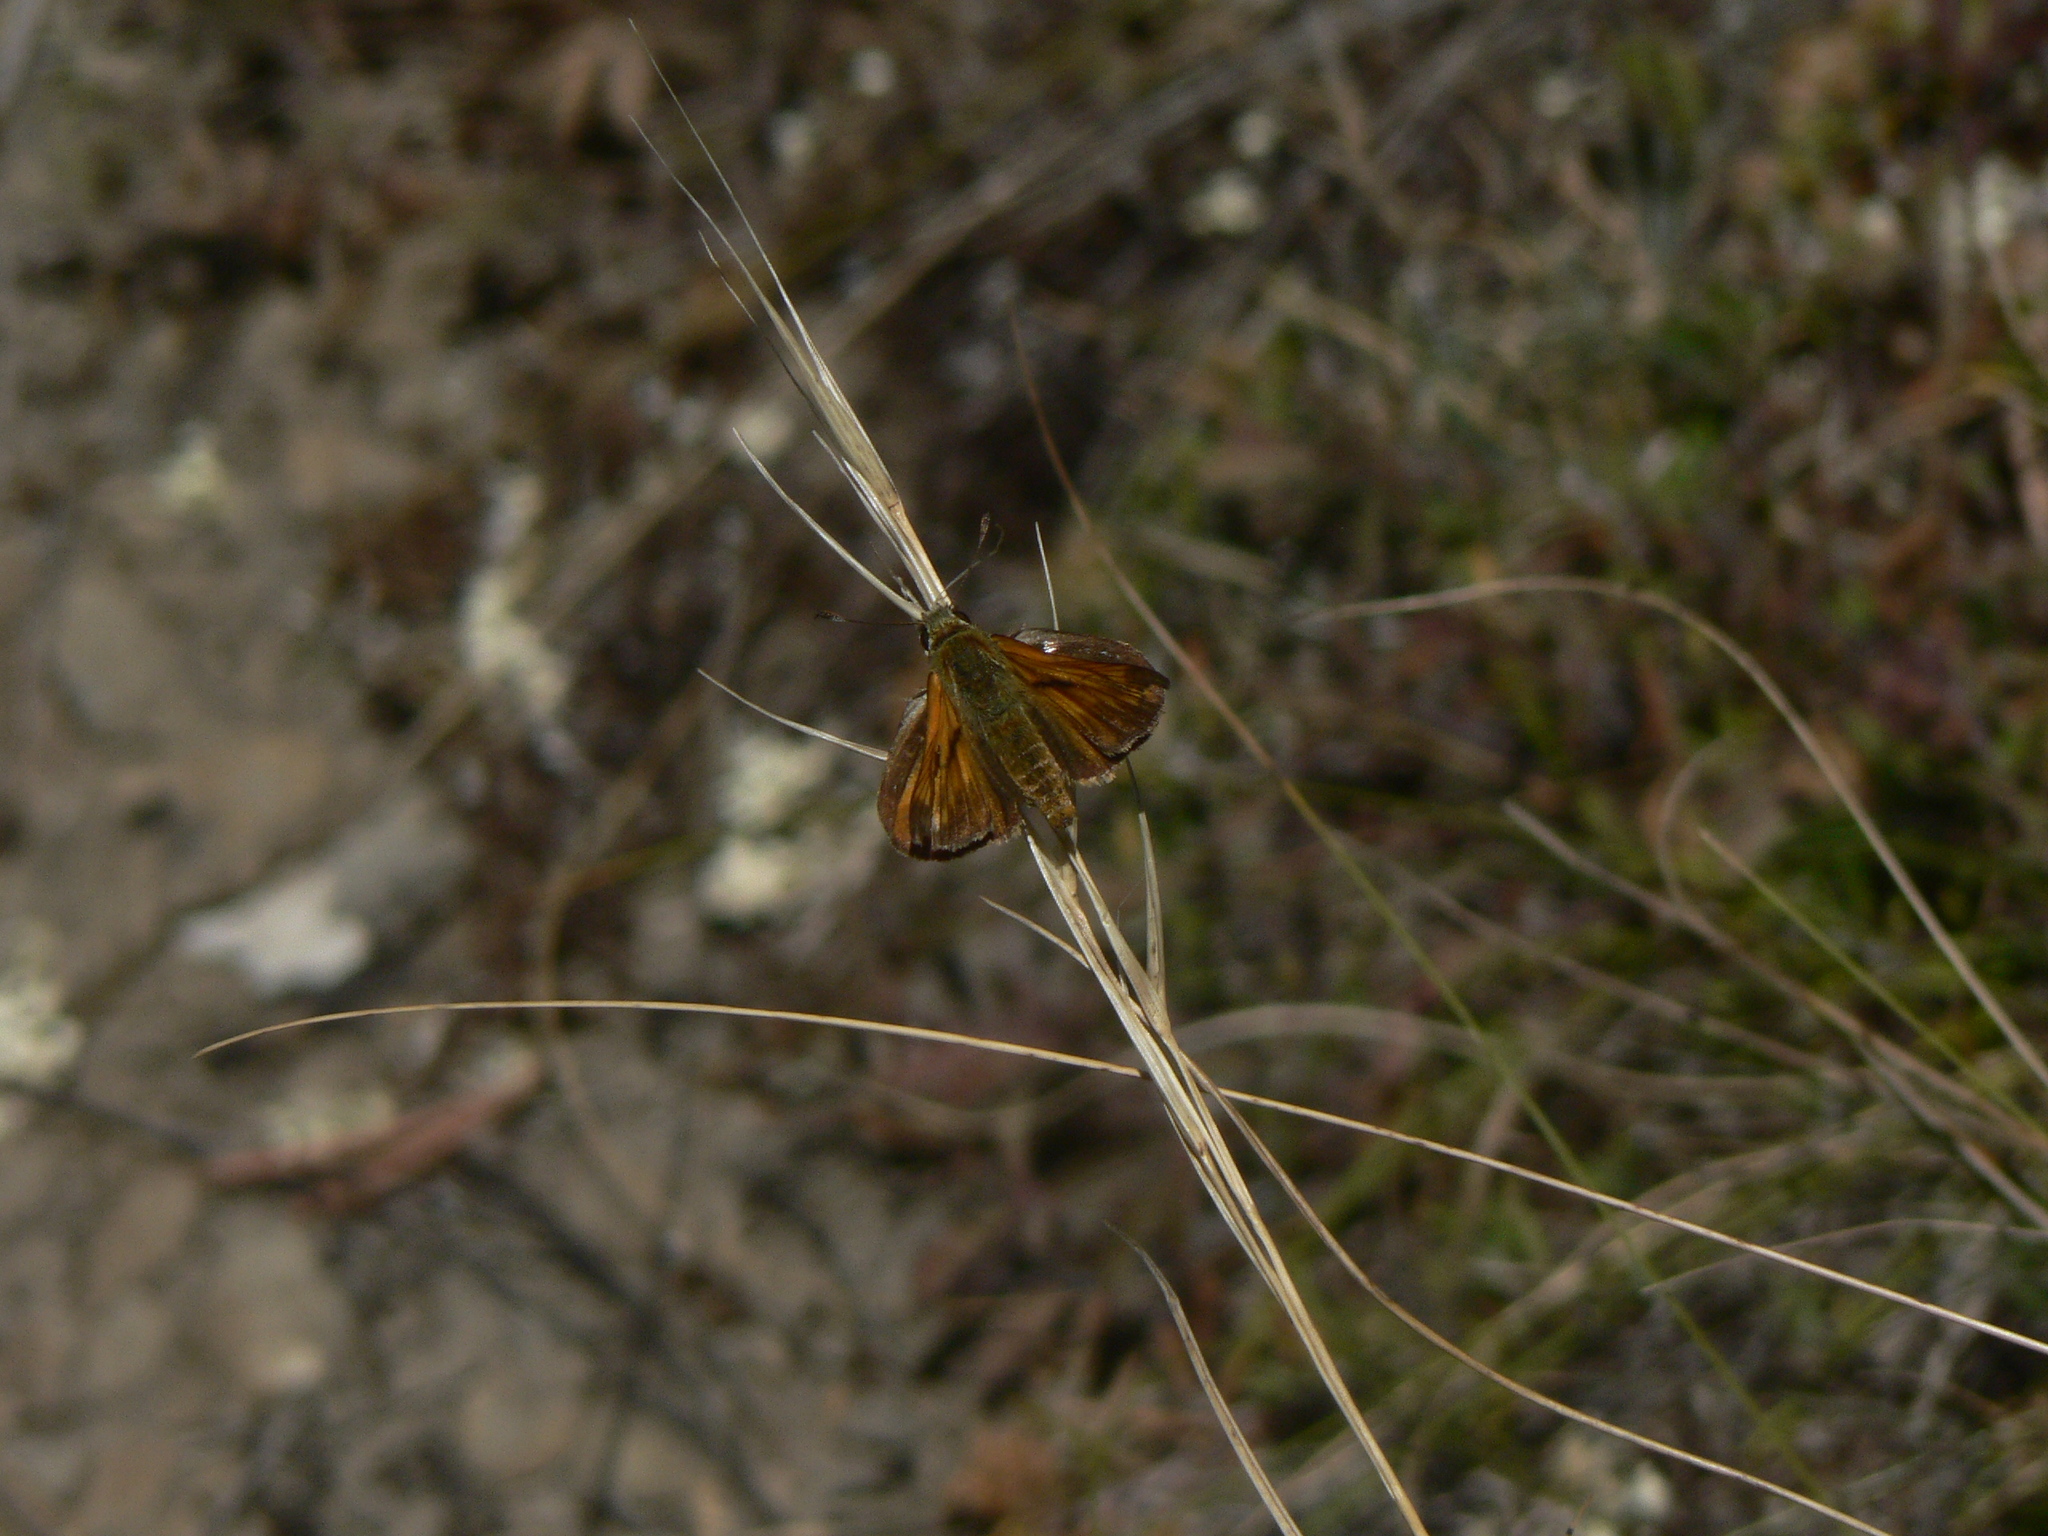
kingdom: Animalia
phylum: Arthropoda
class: Insecta
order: Lepidoptera
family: Hesperiidae
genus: Ochlodes
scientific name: Ochlodes venata
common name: Large skipper
